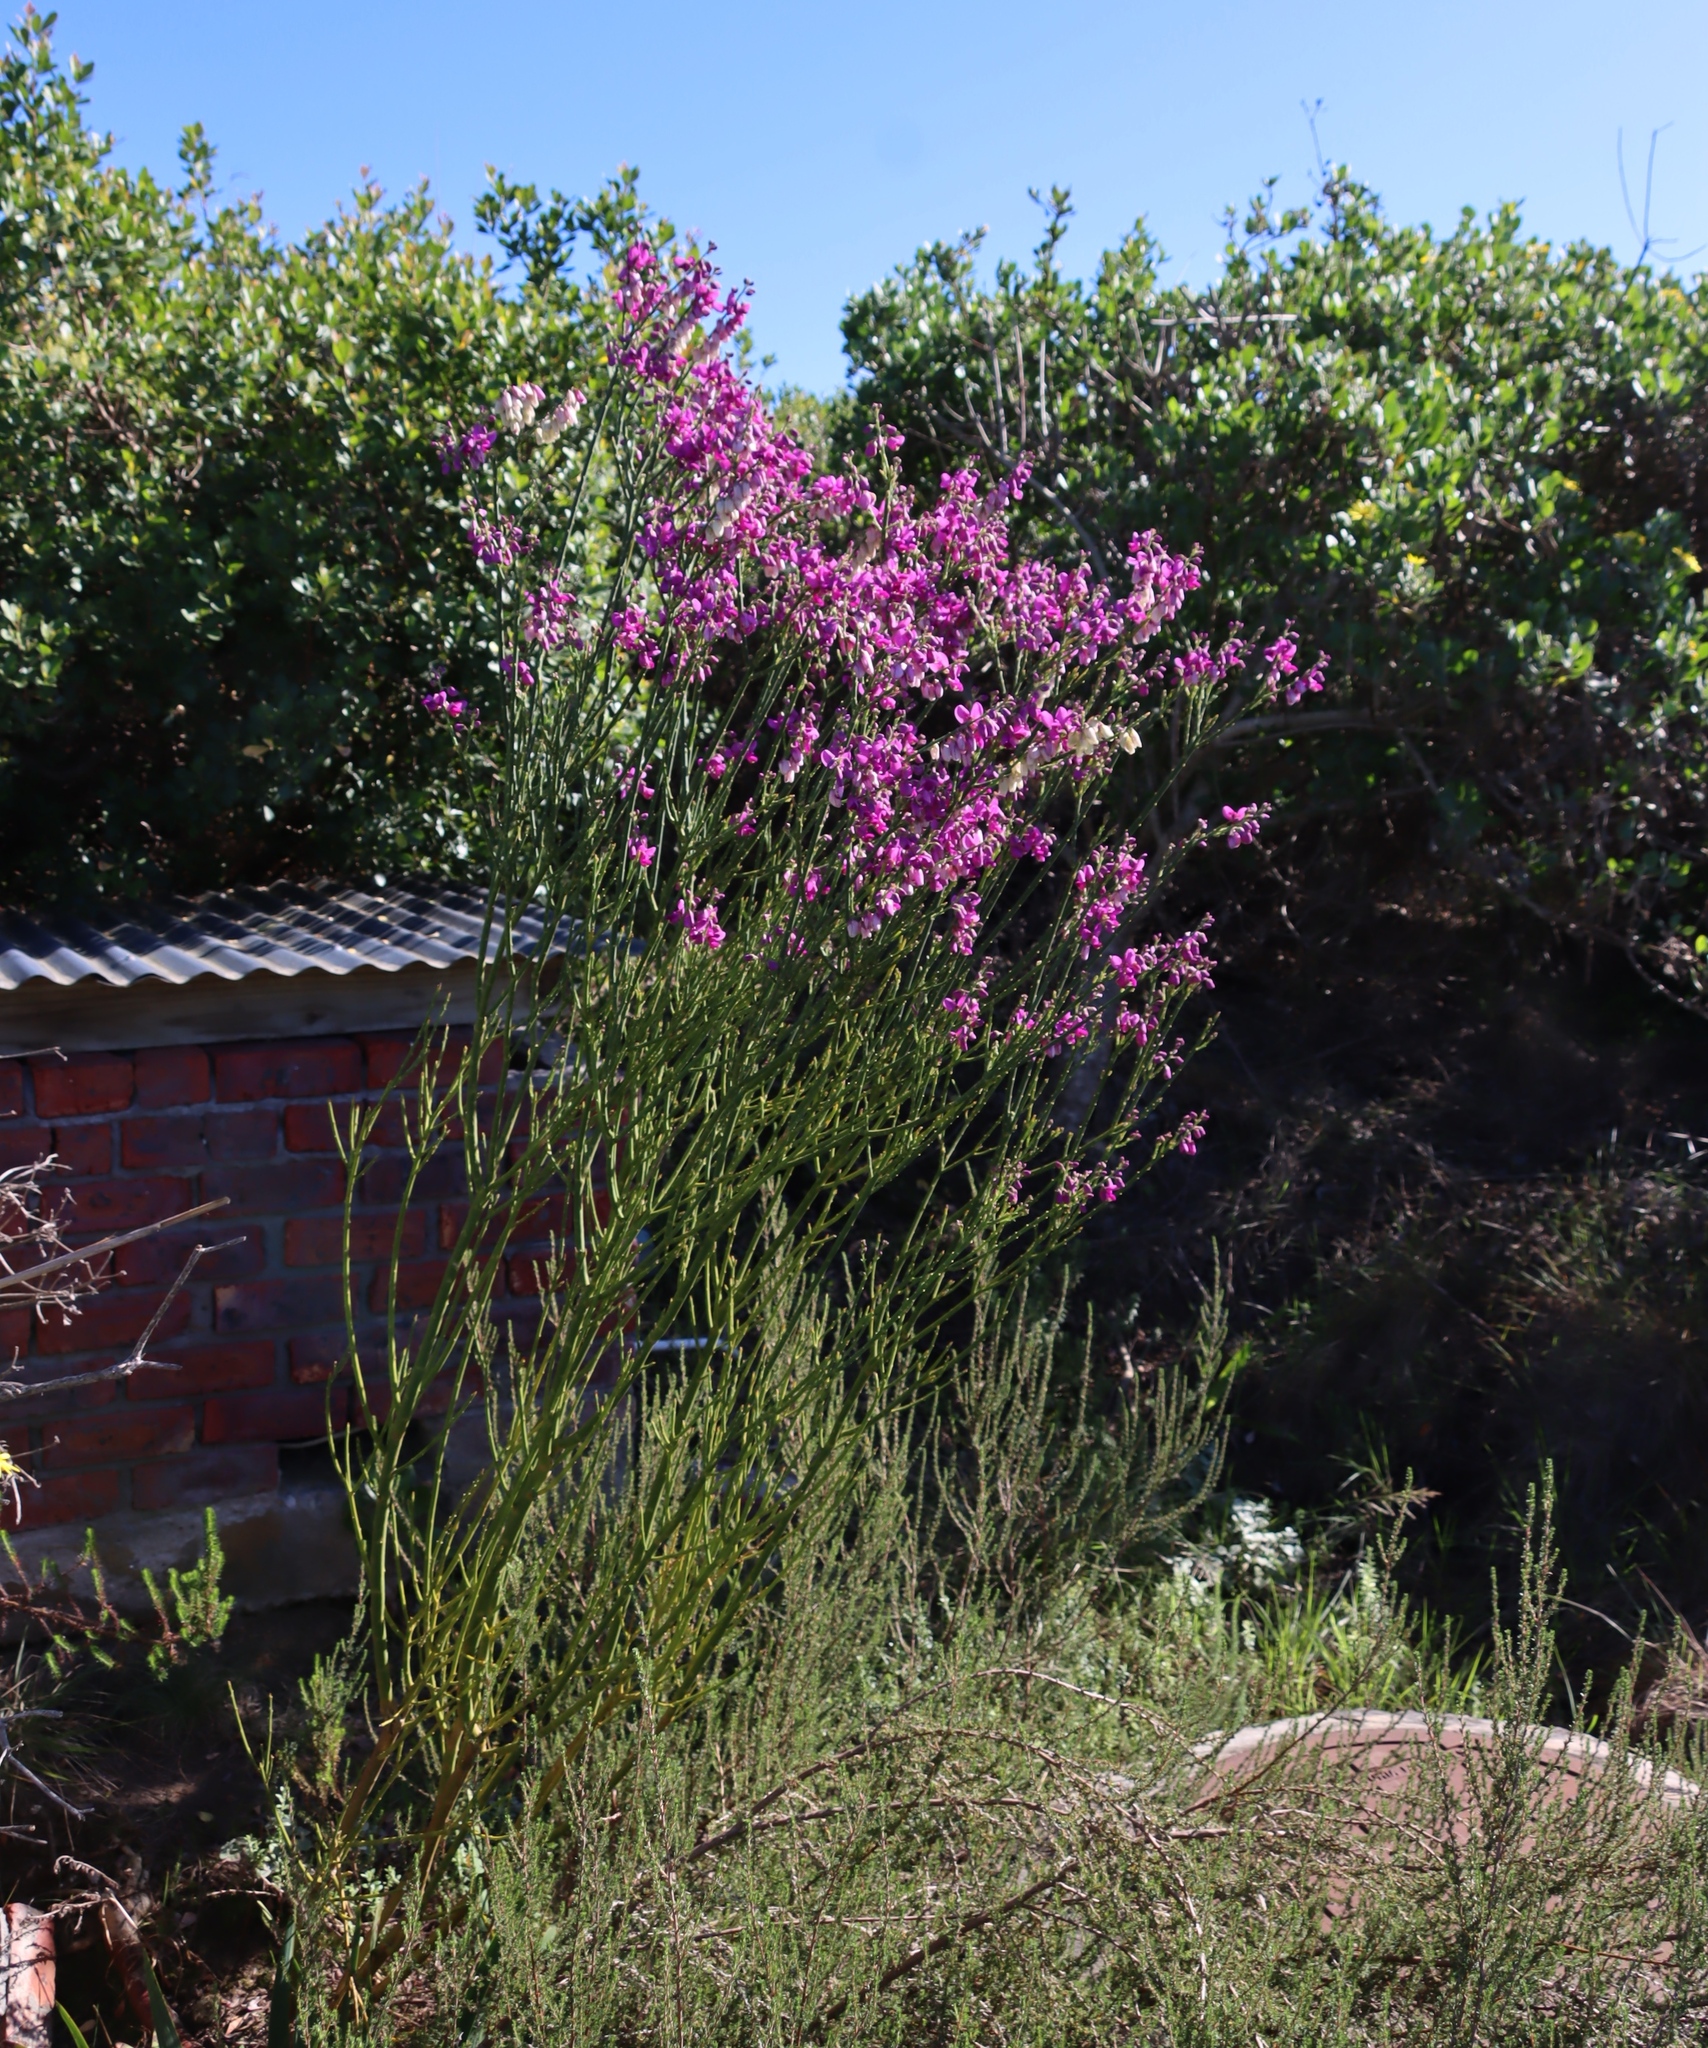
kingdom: Plantae
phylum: Tracheophyta
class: Magnoliopsida
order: Fabales
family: Polygalaceae
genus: Polygala
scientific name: Polygala virgata
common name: Milkwort
